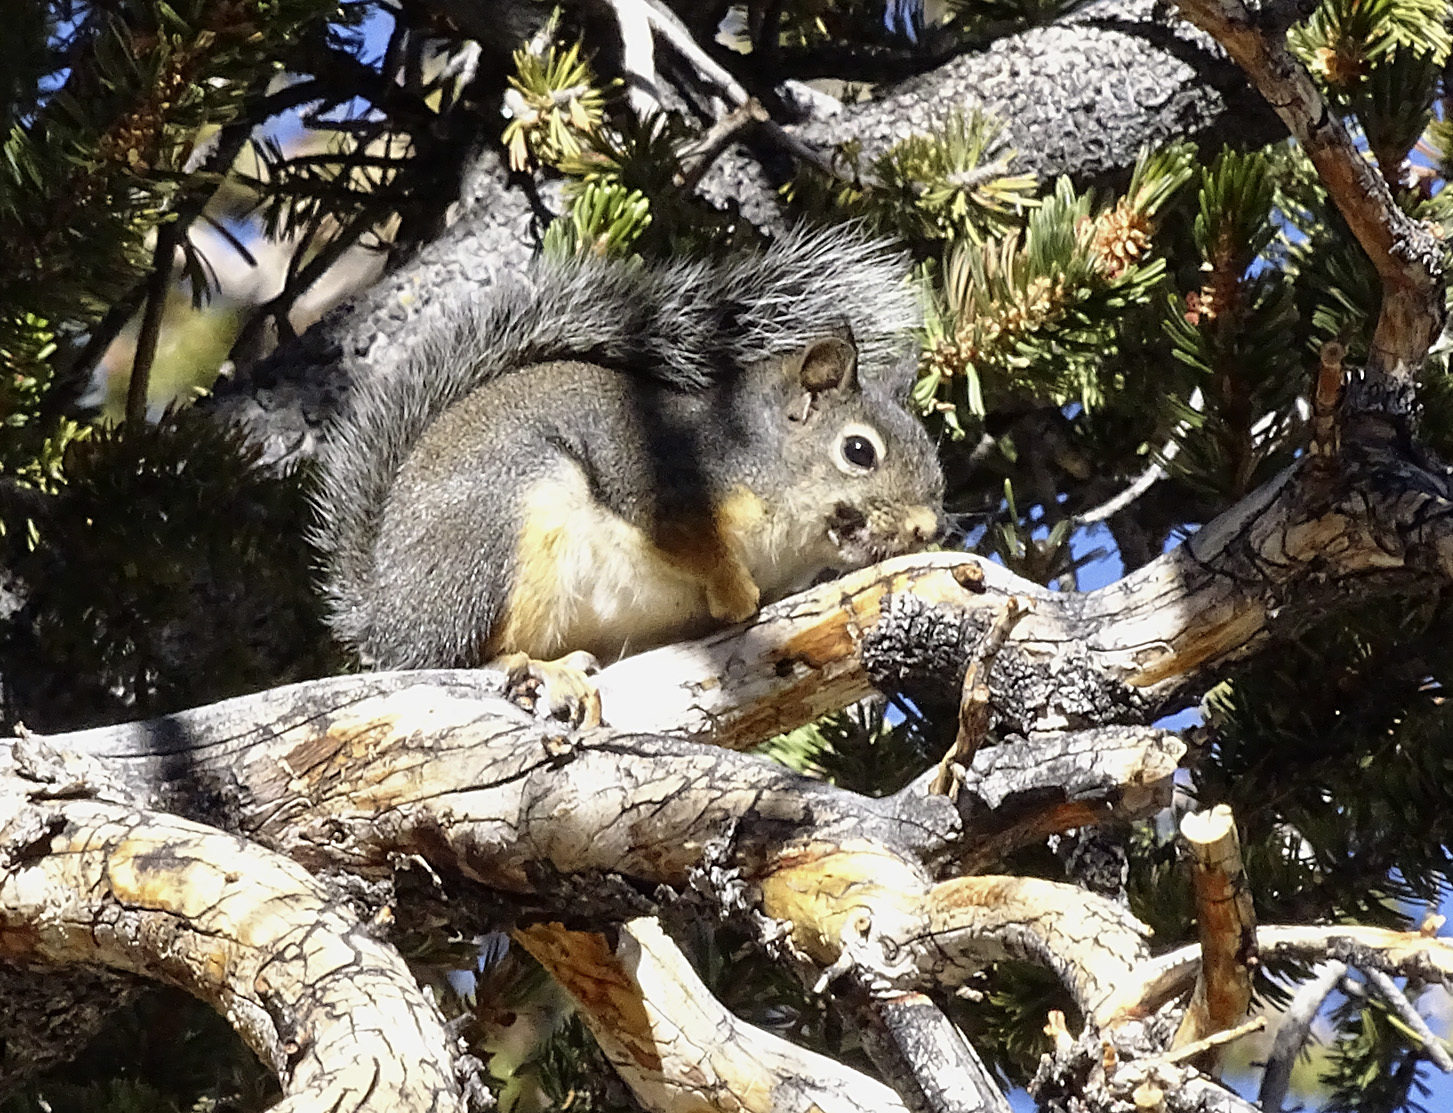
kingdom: Animalia
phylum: Chordata
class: Mammalia
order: Rodentia
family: Sciuridae
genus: Tamiasciurus
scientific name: Tamiasciurus douglasii
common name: Douglas's squirrel
